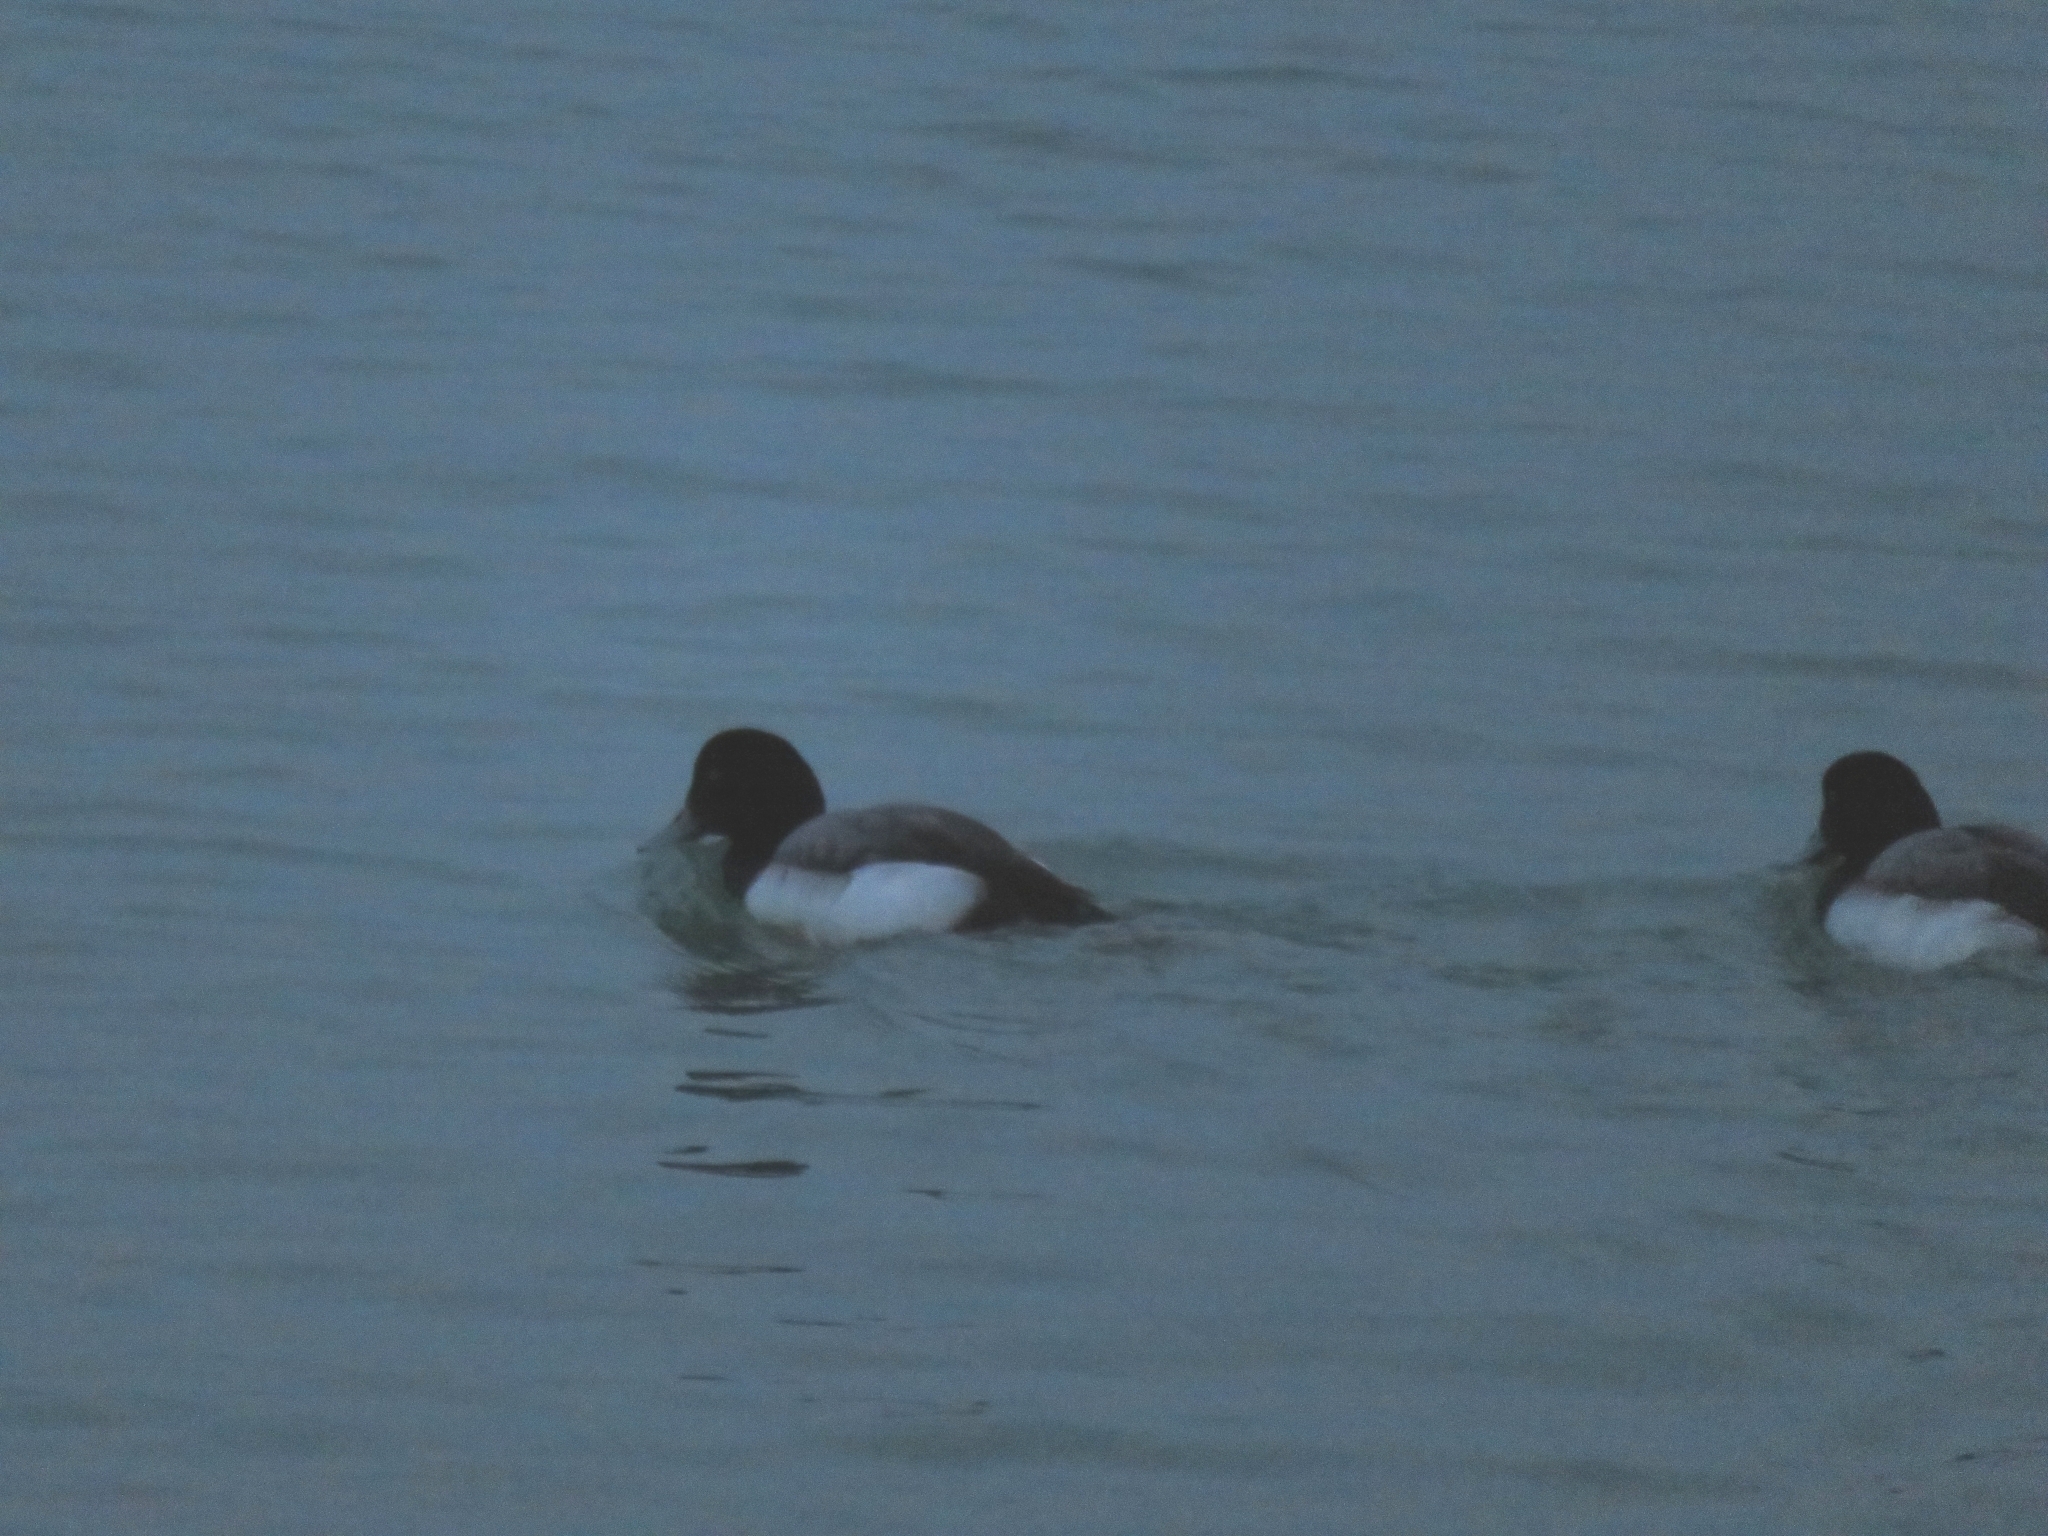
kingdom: Animalia
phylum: Chordata
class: Aves
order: Anseriformes
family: Anatidae
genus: Aythya
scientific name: Aythya marila
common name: Greater scaup
